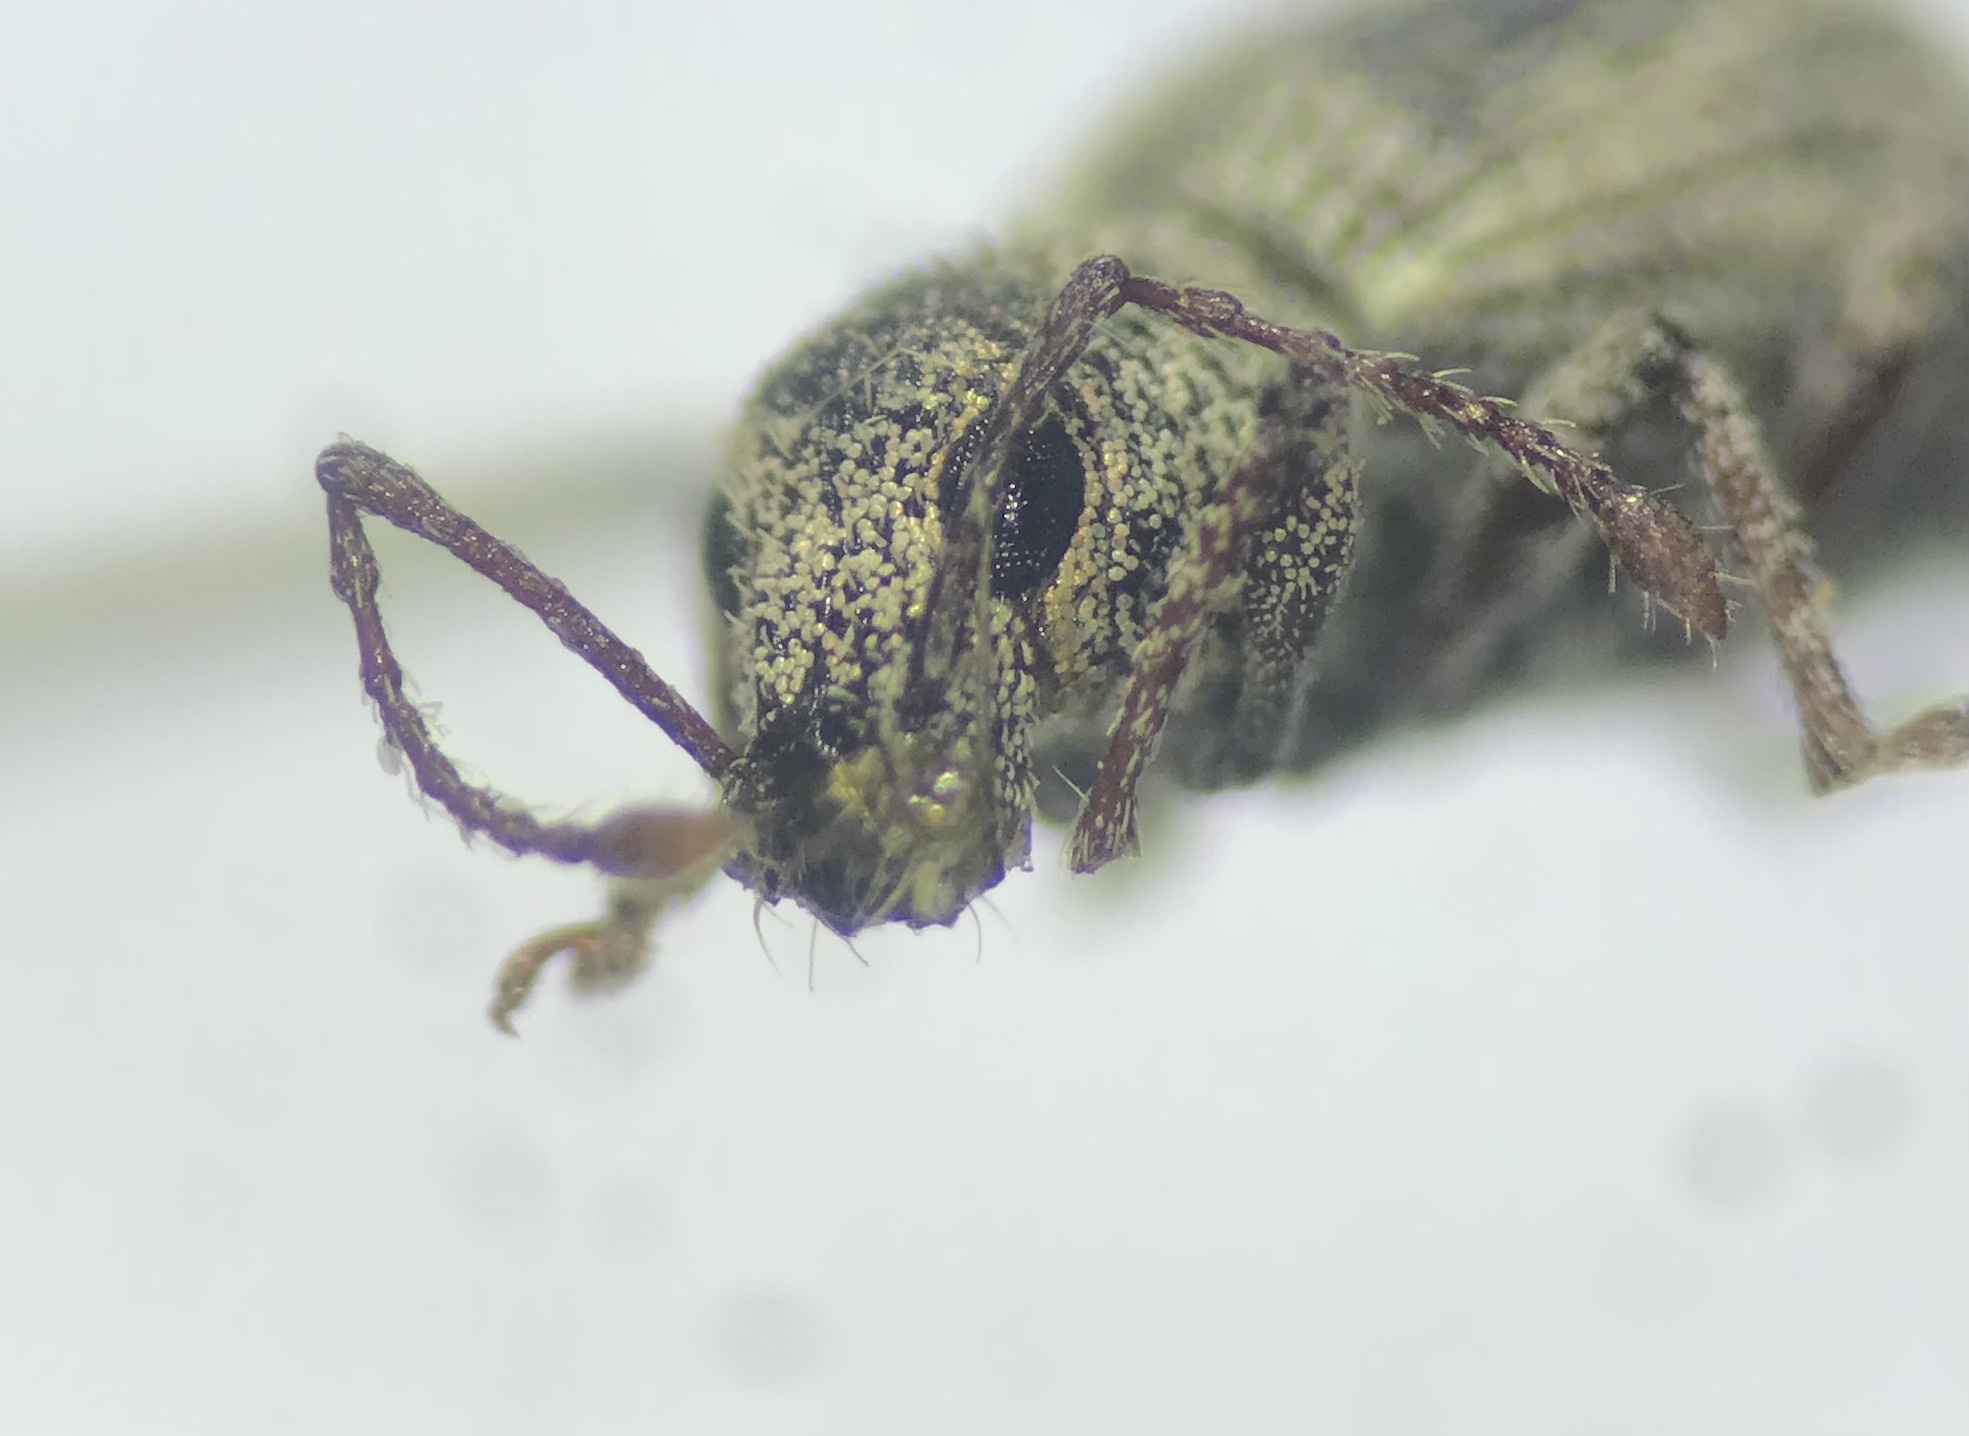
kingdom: Animalia
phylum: Arthropoda
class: Insecta
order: Coleoptera
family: Curculionidae
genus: Calomycterus
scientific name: Calomycterus setarius
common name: Weevil
